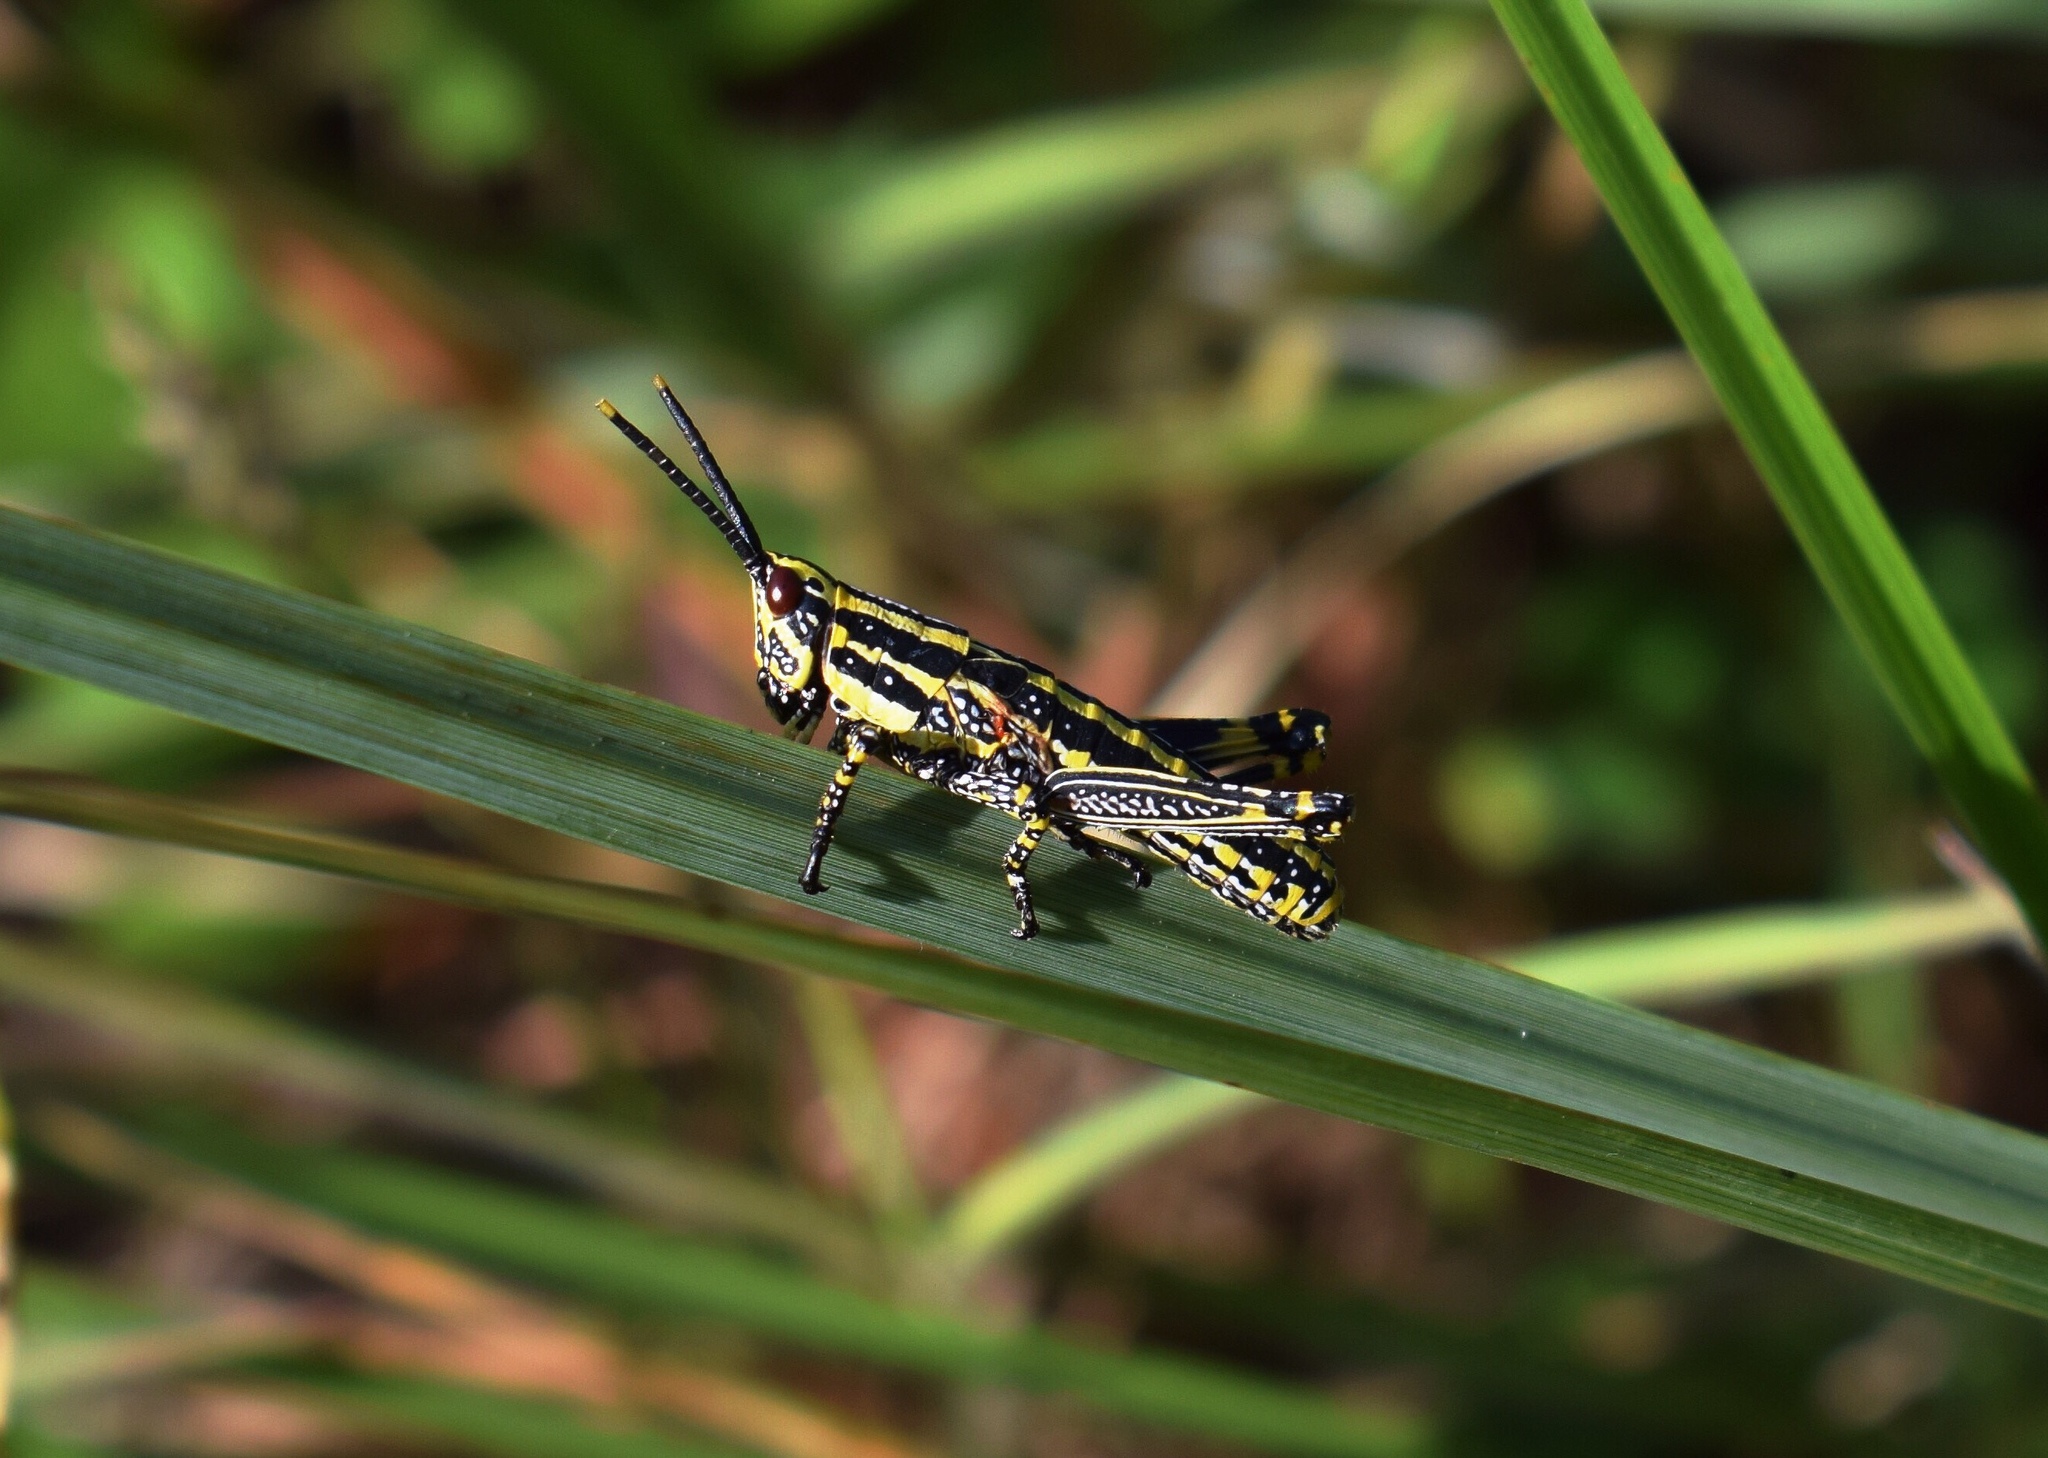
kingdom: Animalia
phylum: Arthropoda
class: Insecta
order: Orthoptera
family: Pyrgomorphidae
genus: Zonocerus
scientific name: Zonocerus elegans
